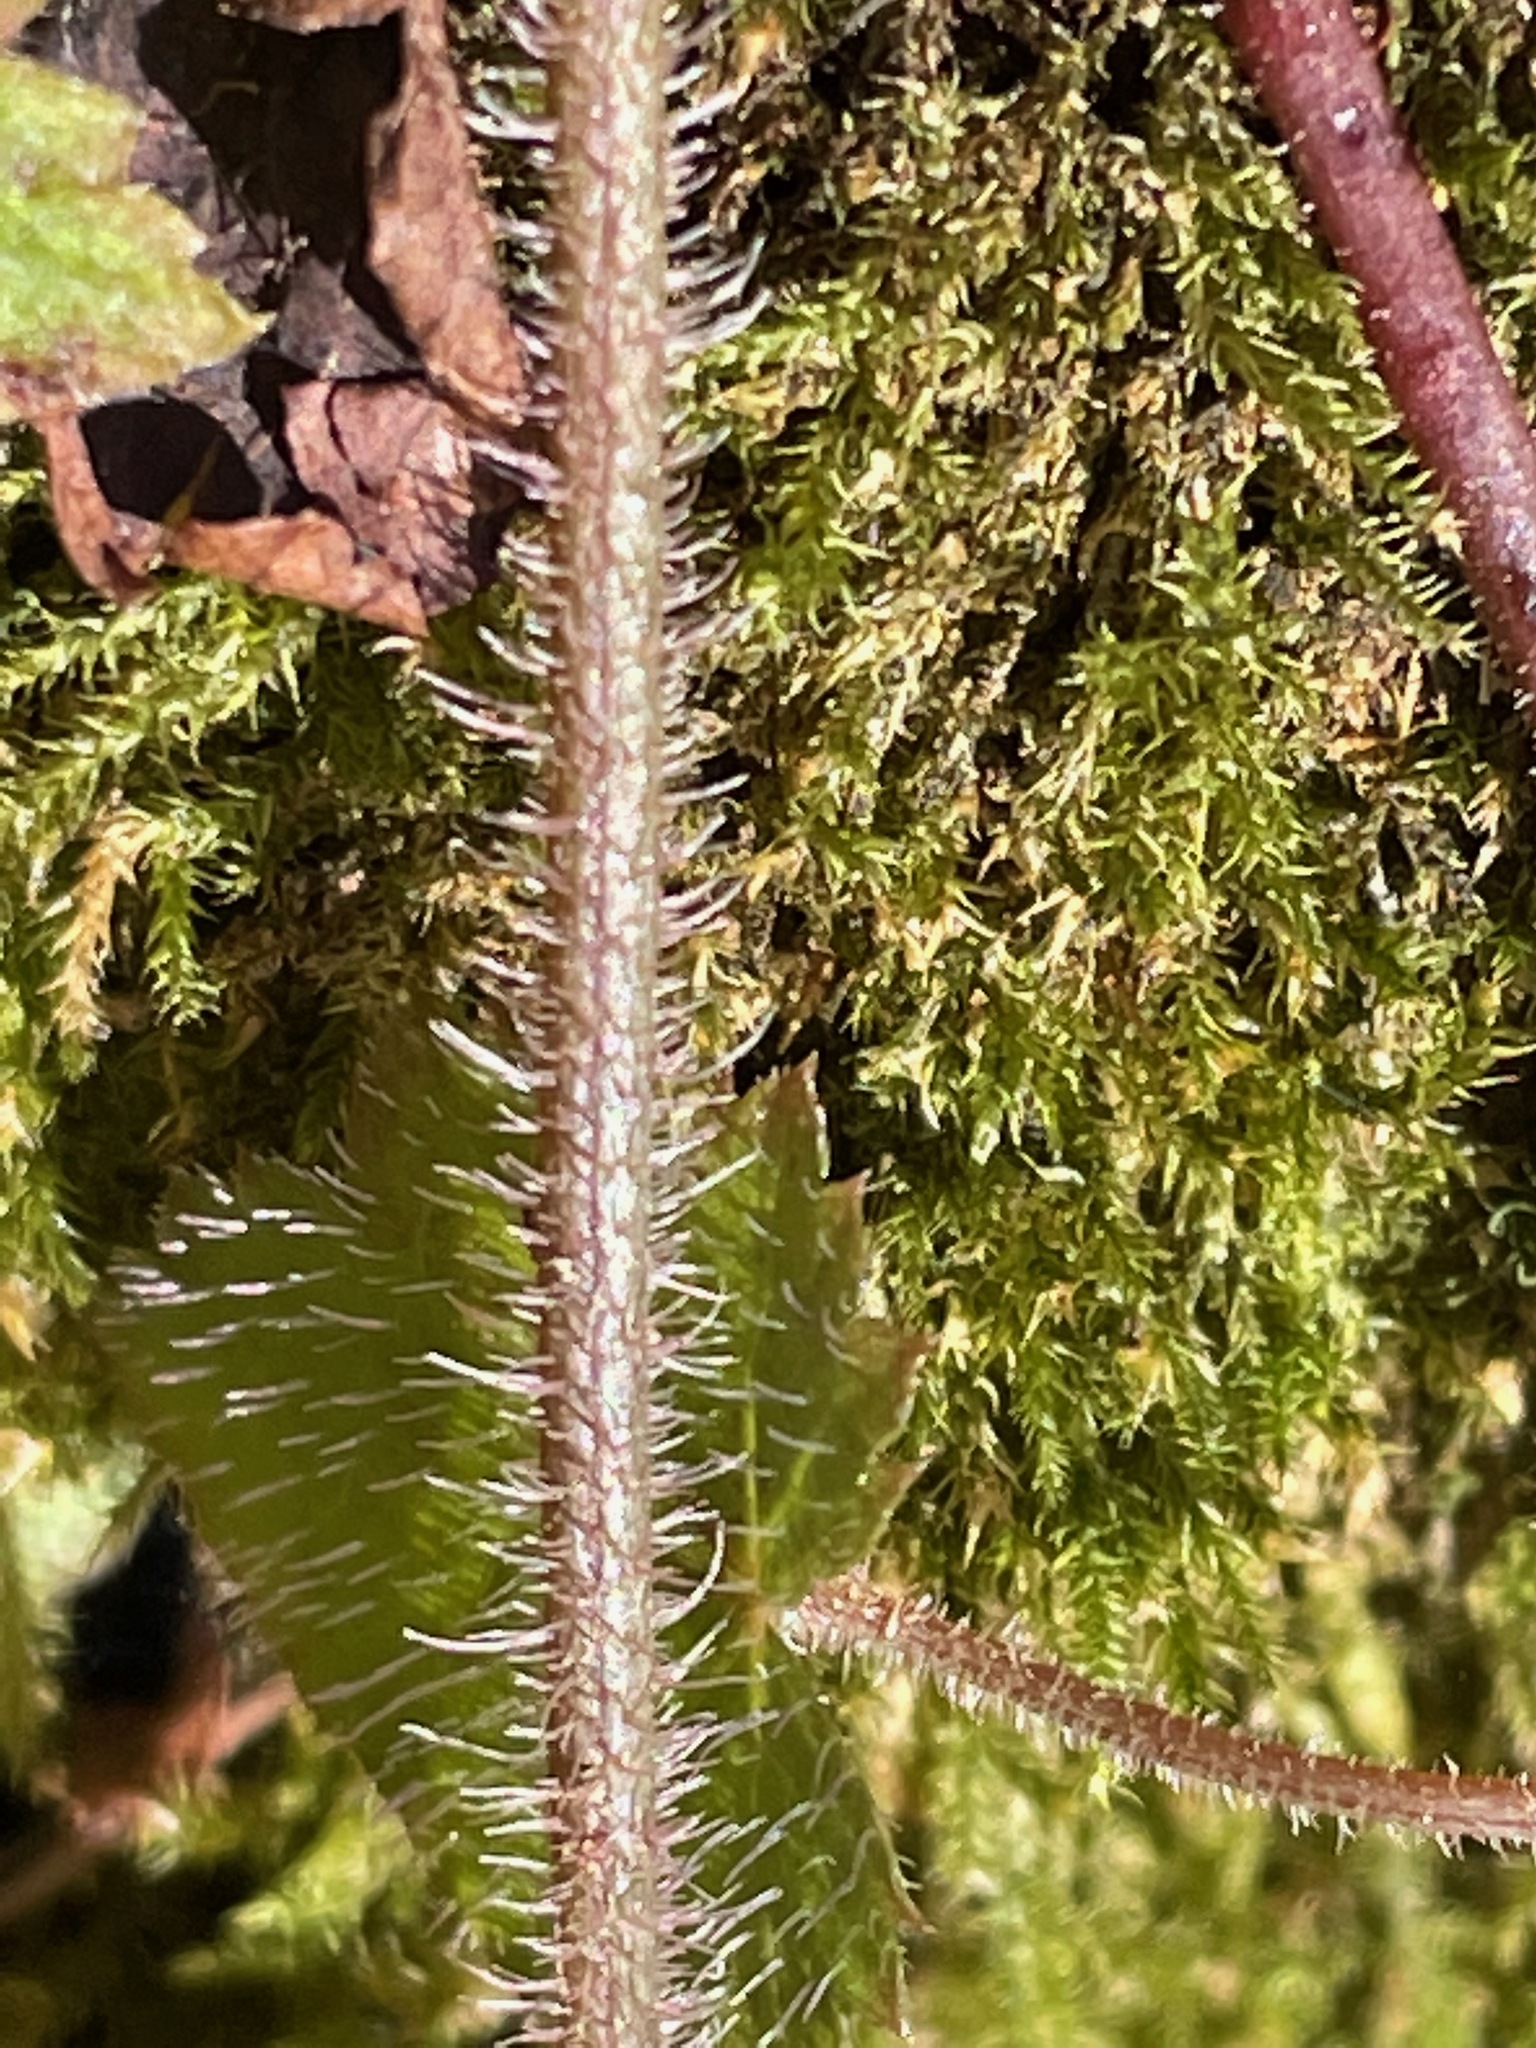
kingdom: Plantae
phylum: Tracheophyta
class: Magnoliopsida
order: Saxifragales
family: Saxifragaceae
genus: Tiarella
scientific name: Tiarella stolonifera
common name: Stoloniferous foamflower
